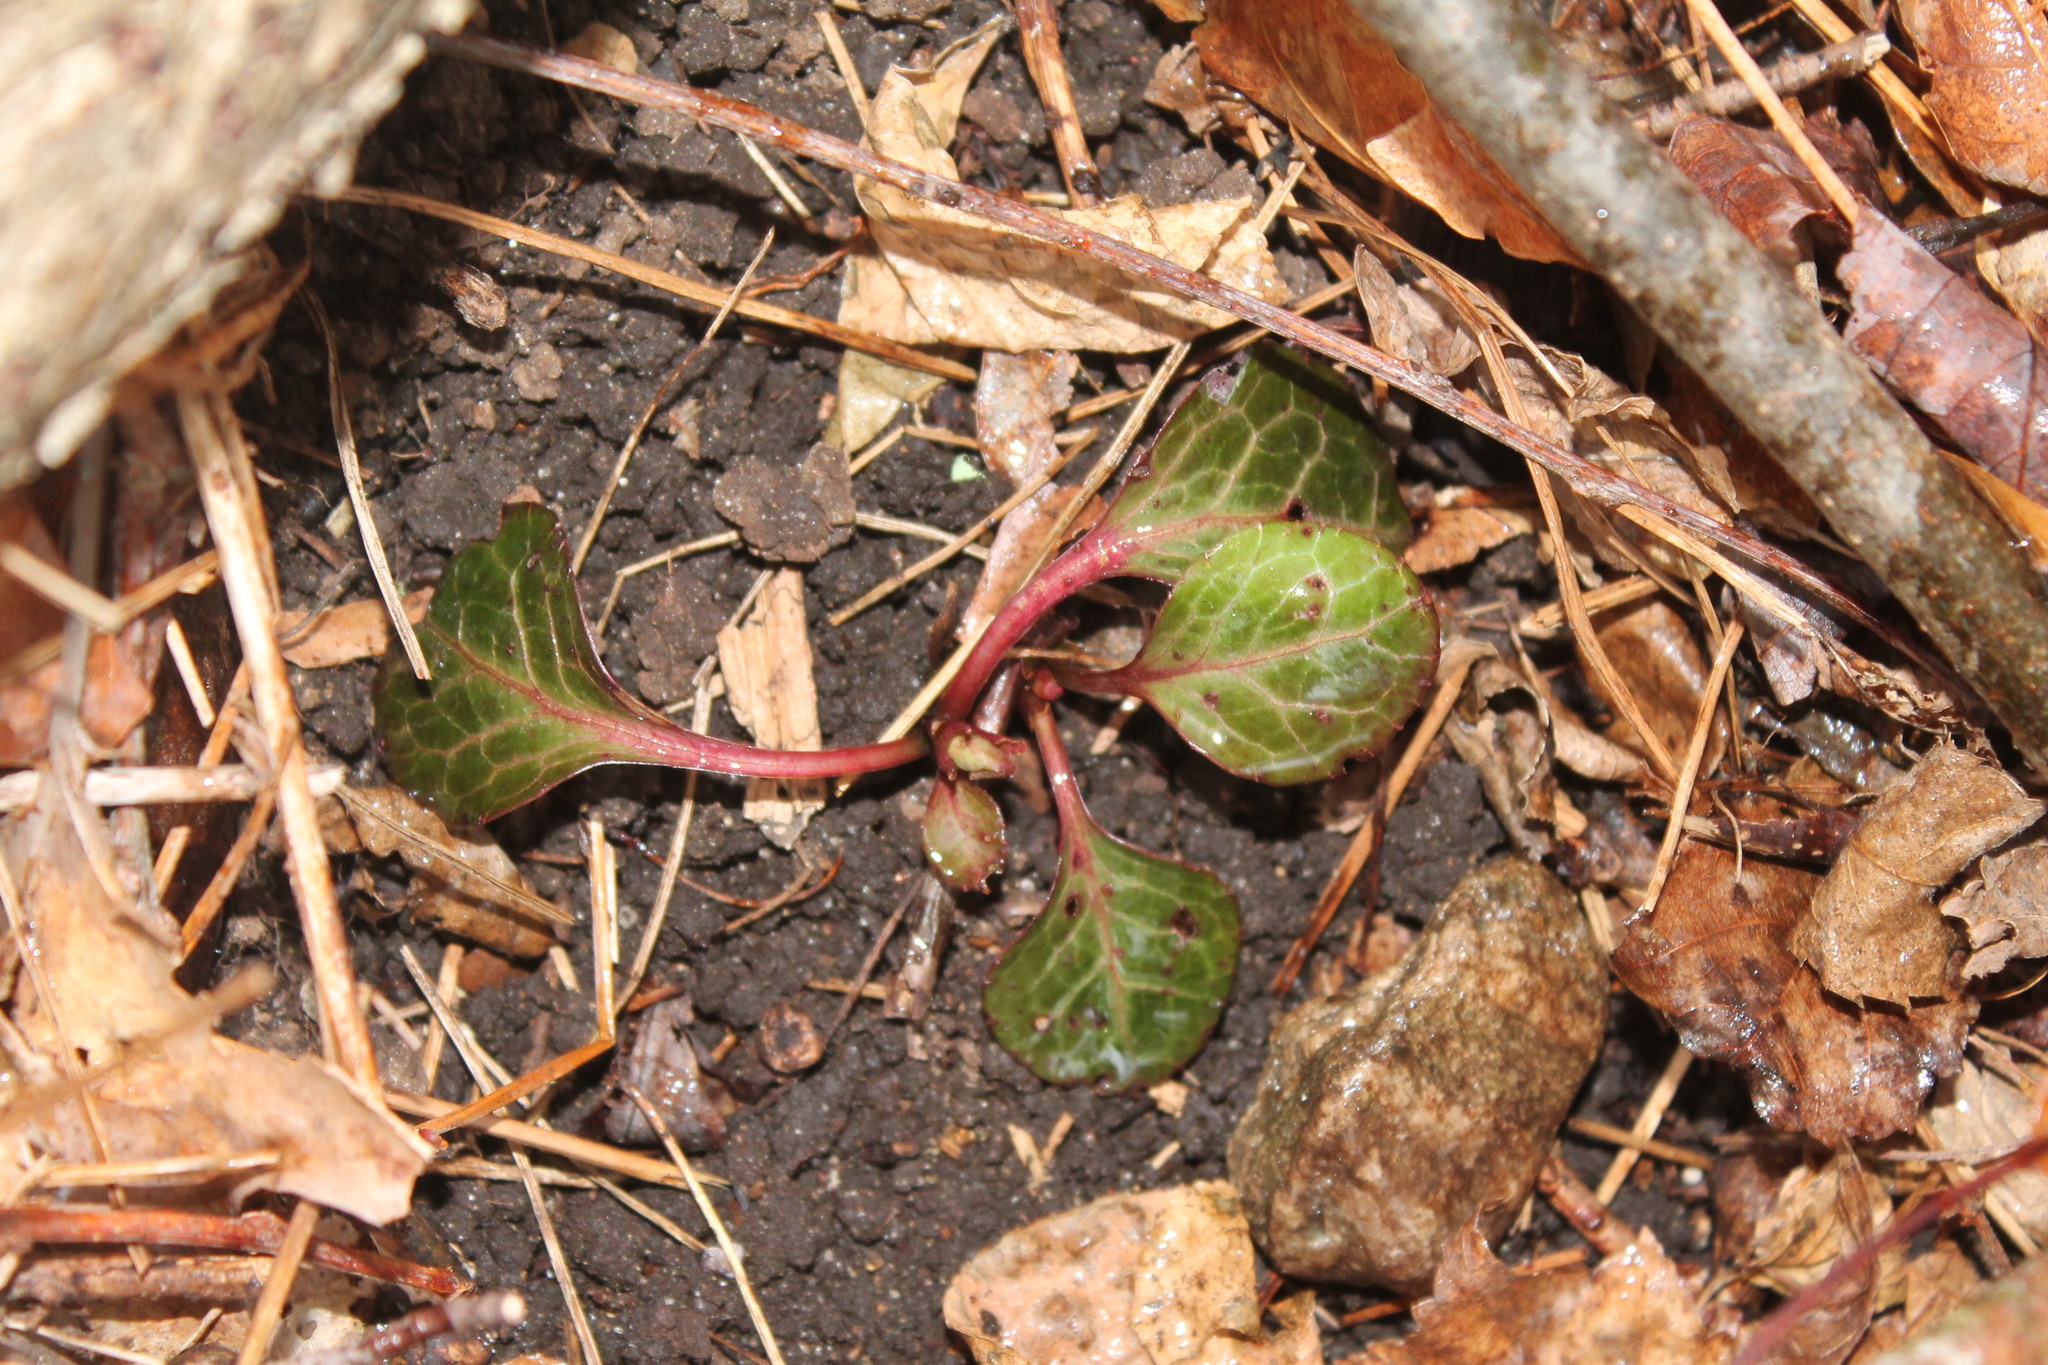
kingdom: Plantae
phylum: Tracheophyta
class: Magnoliopsida
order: Ericales
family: Ericaceae
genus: Pyrola
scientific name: Pyrola americana
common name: American wintergreen
